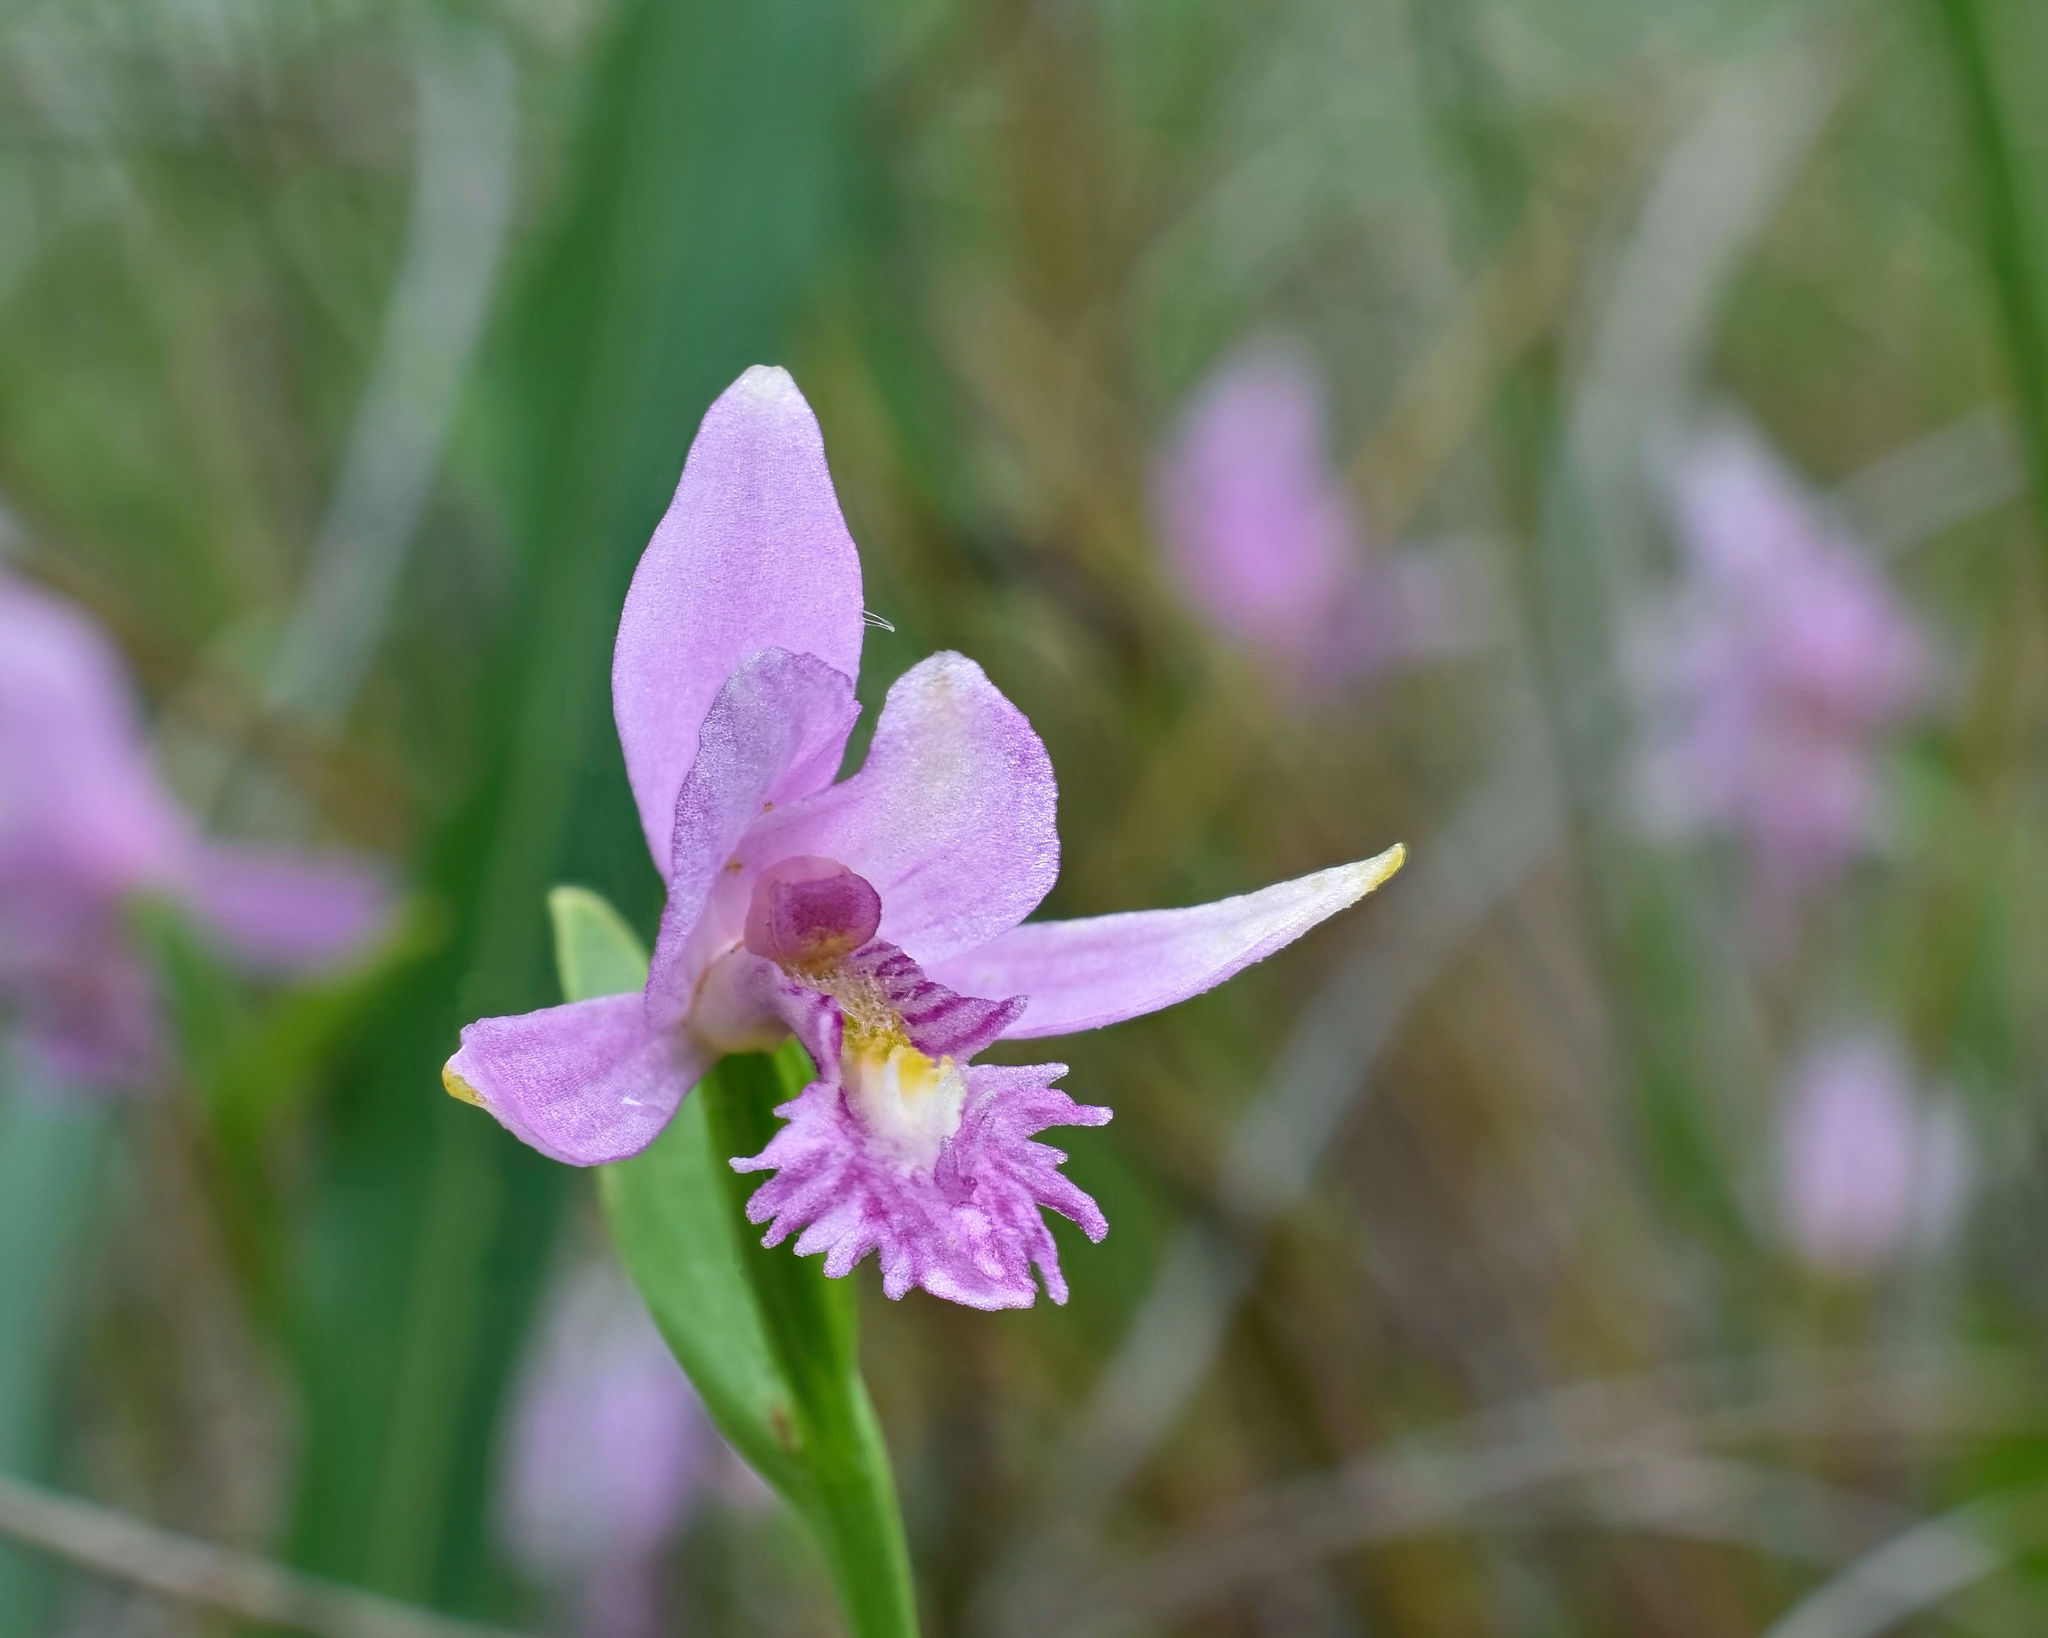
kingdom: Plantae
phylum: Tracheophyta
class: Liliopsida
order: Asparagales
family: Orchidaceae
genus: Pogonia
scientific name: Pogonia ophioglossoides
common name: Rose pogonia
